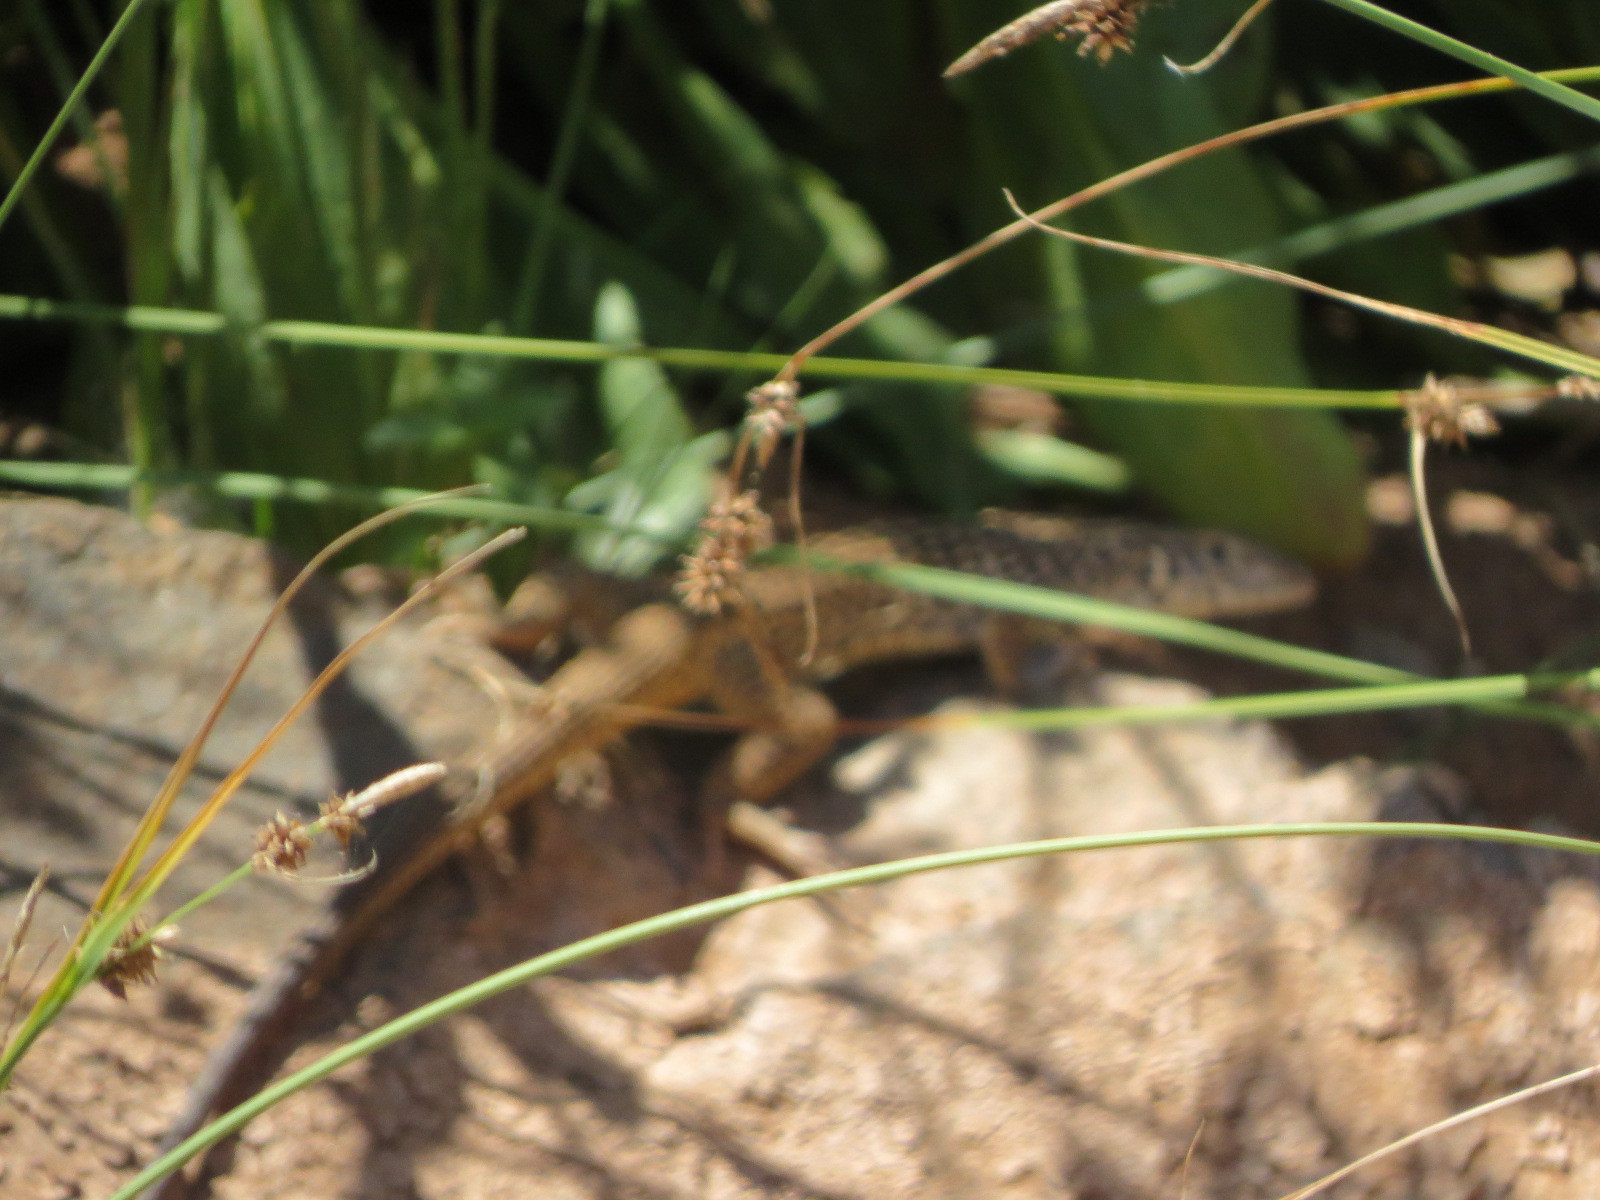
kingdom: Animalia
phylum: Chordata
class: Squamata
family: Teiidae
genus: Aspidoscelis
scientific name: Aspidoscelis tigris
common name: Tiger whiptail
